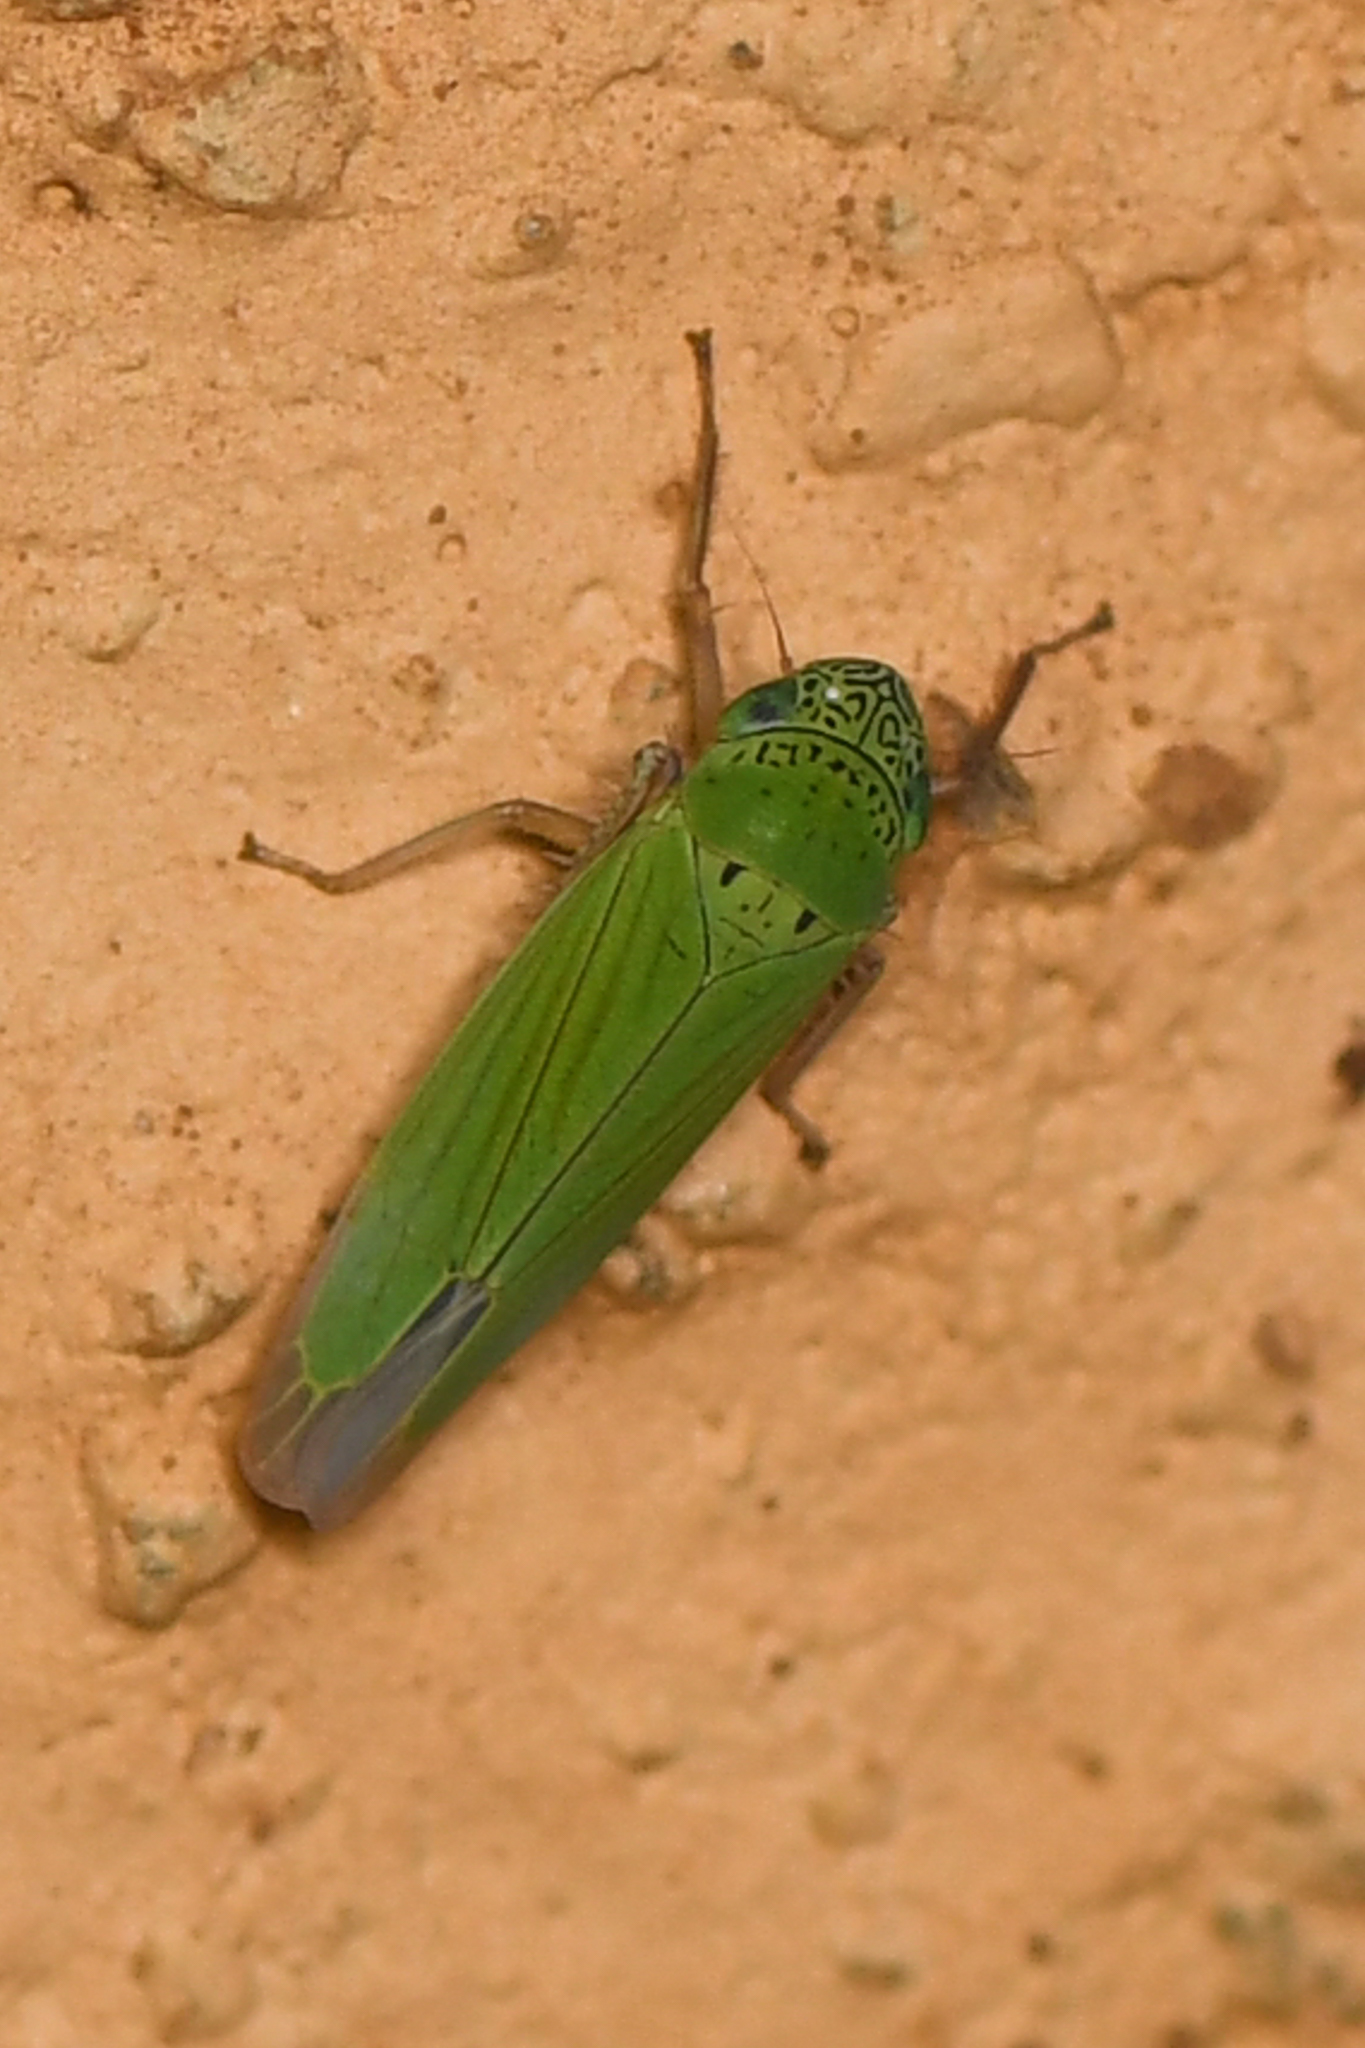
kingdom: Animalia
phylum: Arthropoda
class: Insecta
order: Hemiptera
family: Cicadellidae
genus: Hortensia
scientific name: Hortensia similis
